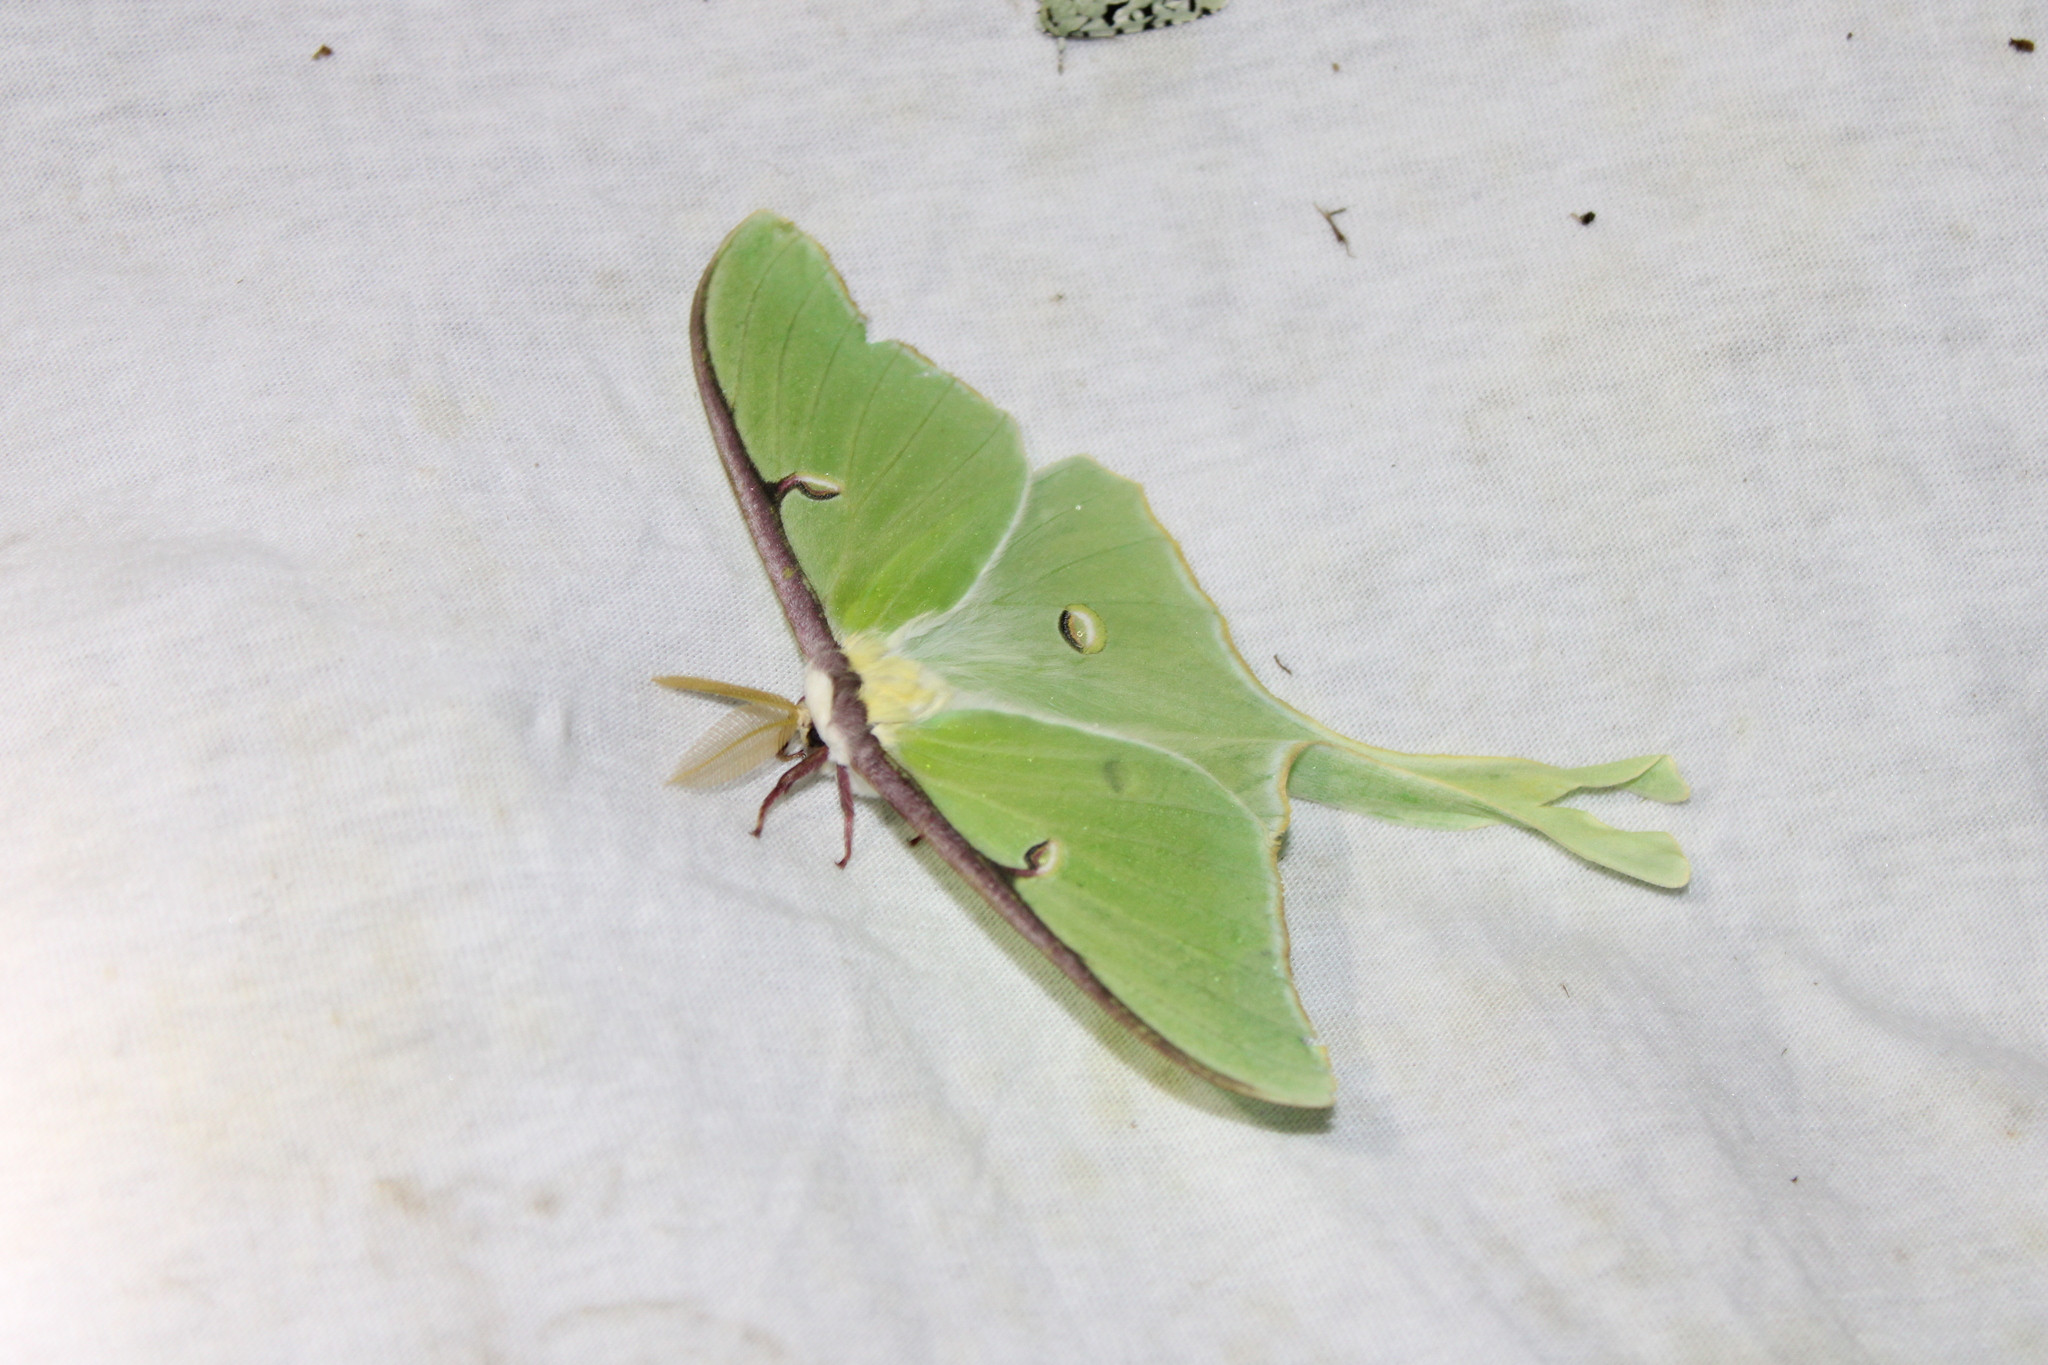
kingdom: Animalia
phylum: Arthropoda
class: Insecta
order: Lepidoptera
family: Saturniidae
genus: Actias
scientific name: Actias luna
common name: Luna moth
